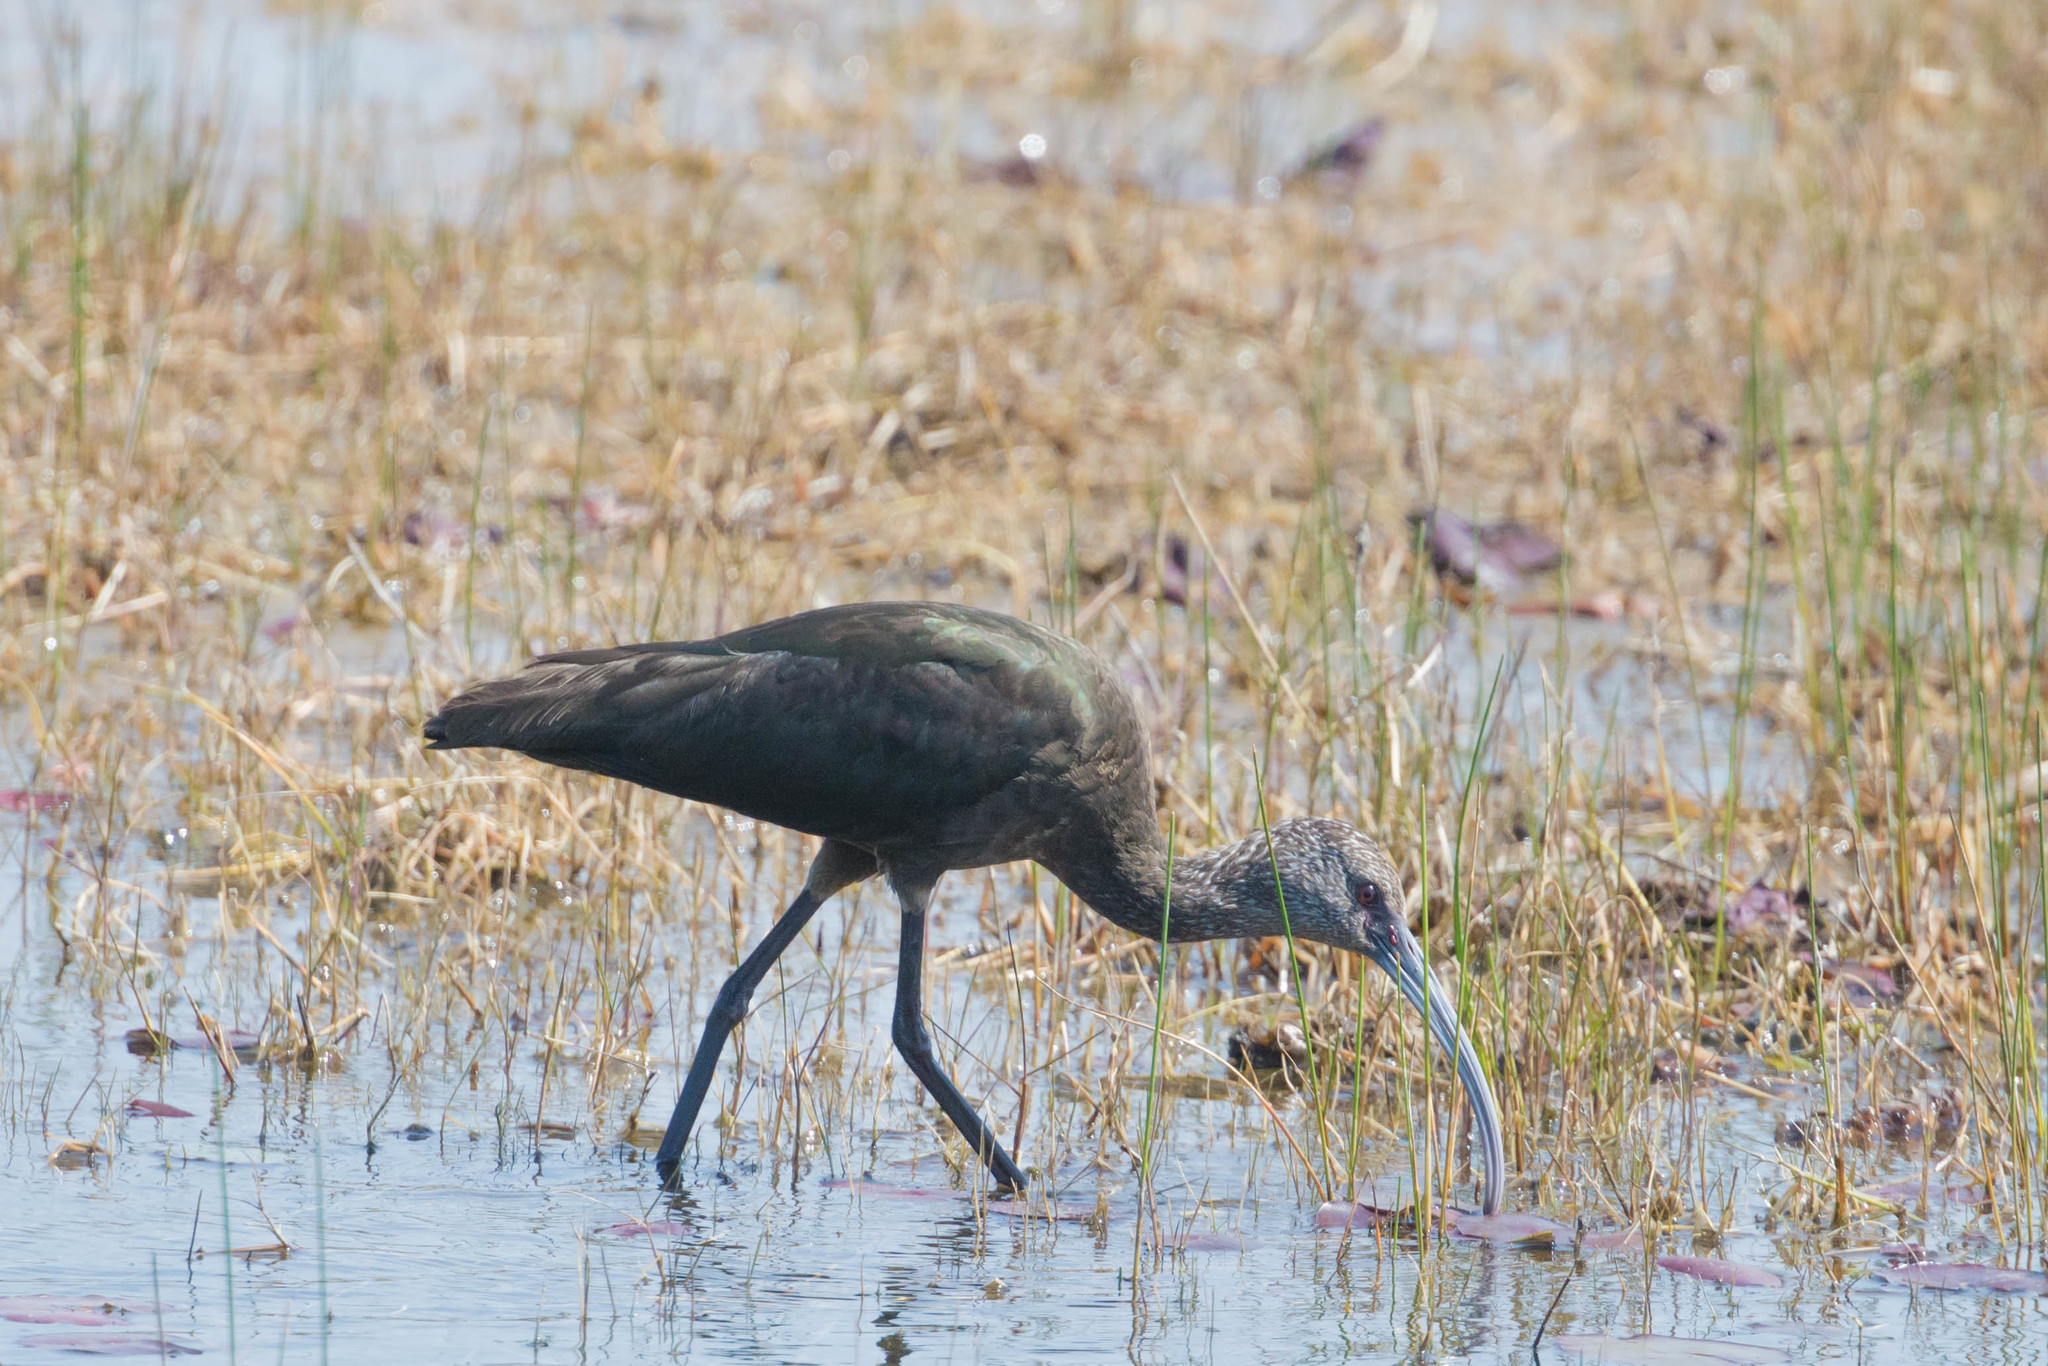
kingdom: Animalia
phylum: Chordata
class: Aves
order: Pelecaniformes
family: Threskiornithidae
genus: Plegadis
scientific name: Plegadis falcinellus
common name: Glossy ibis
